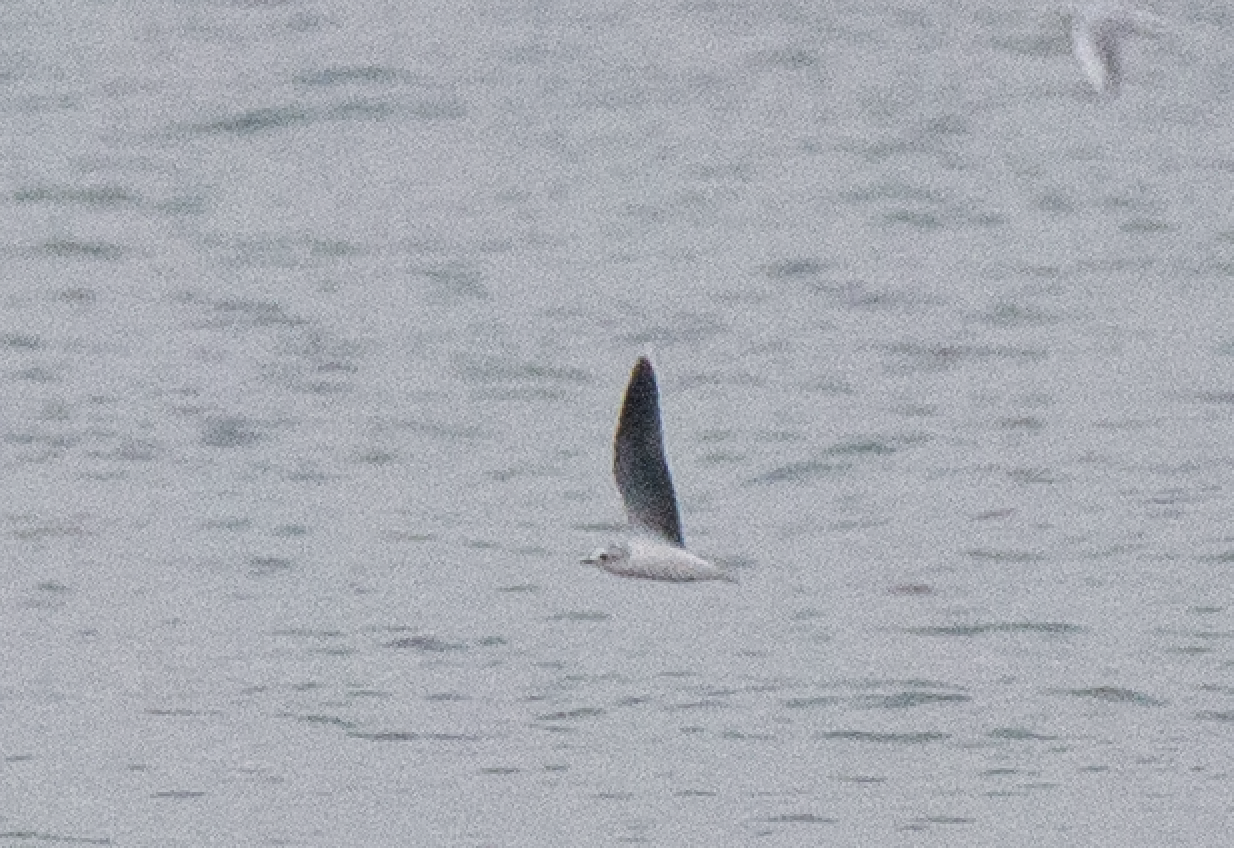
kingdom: Animalia
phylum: Chordata
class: Aves
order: Charadriiformes
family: Laridae
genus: Hydrocoloeus
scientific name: Hydrocoloeus minutus
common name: Little gull
